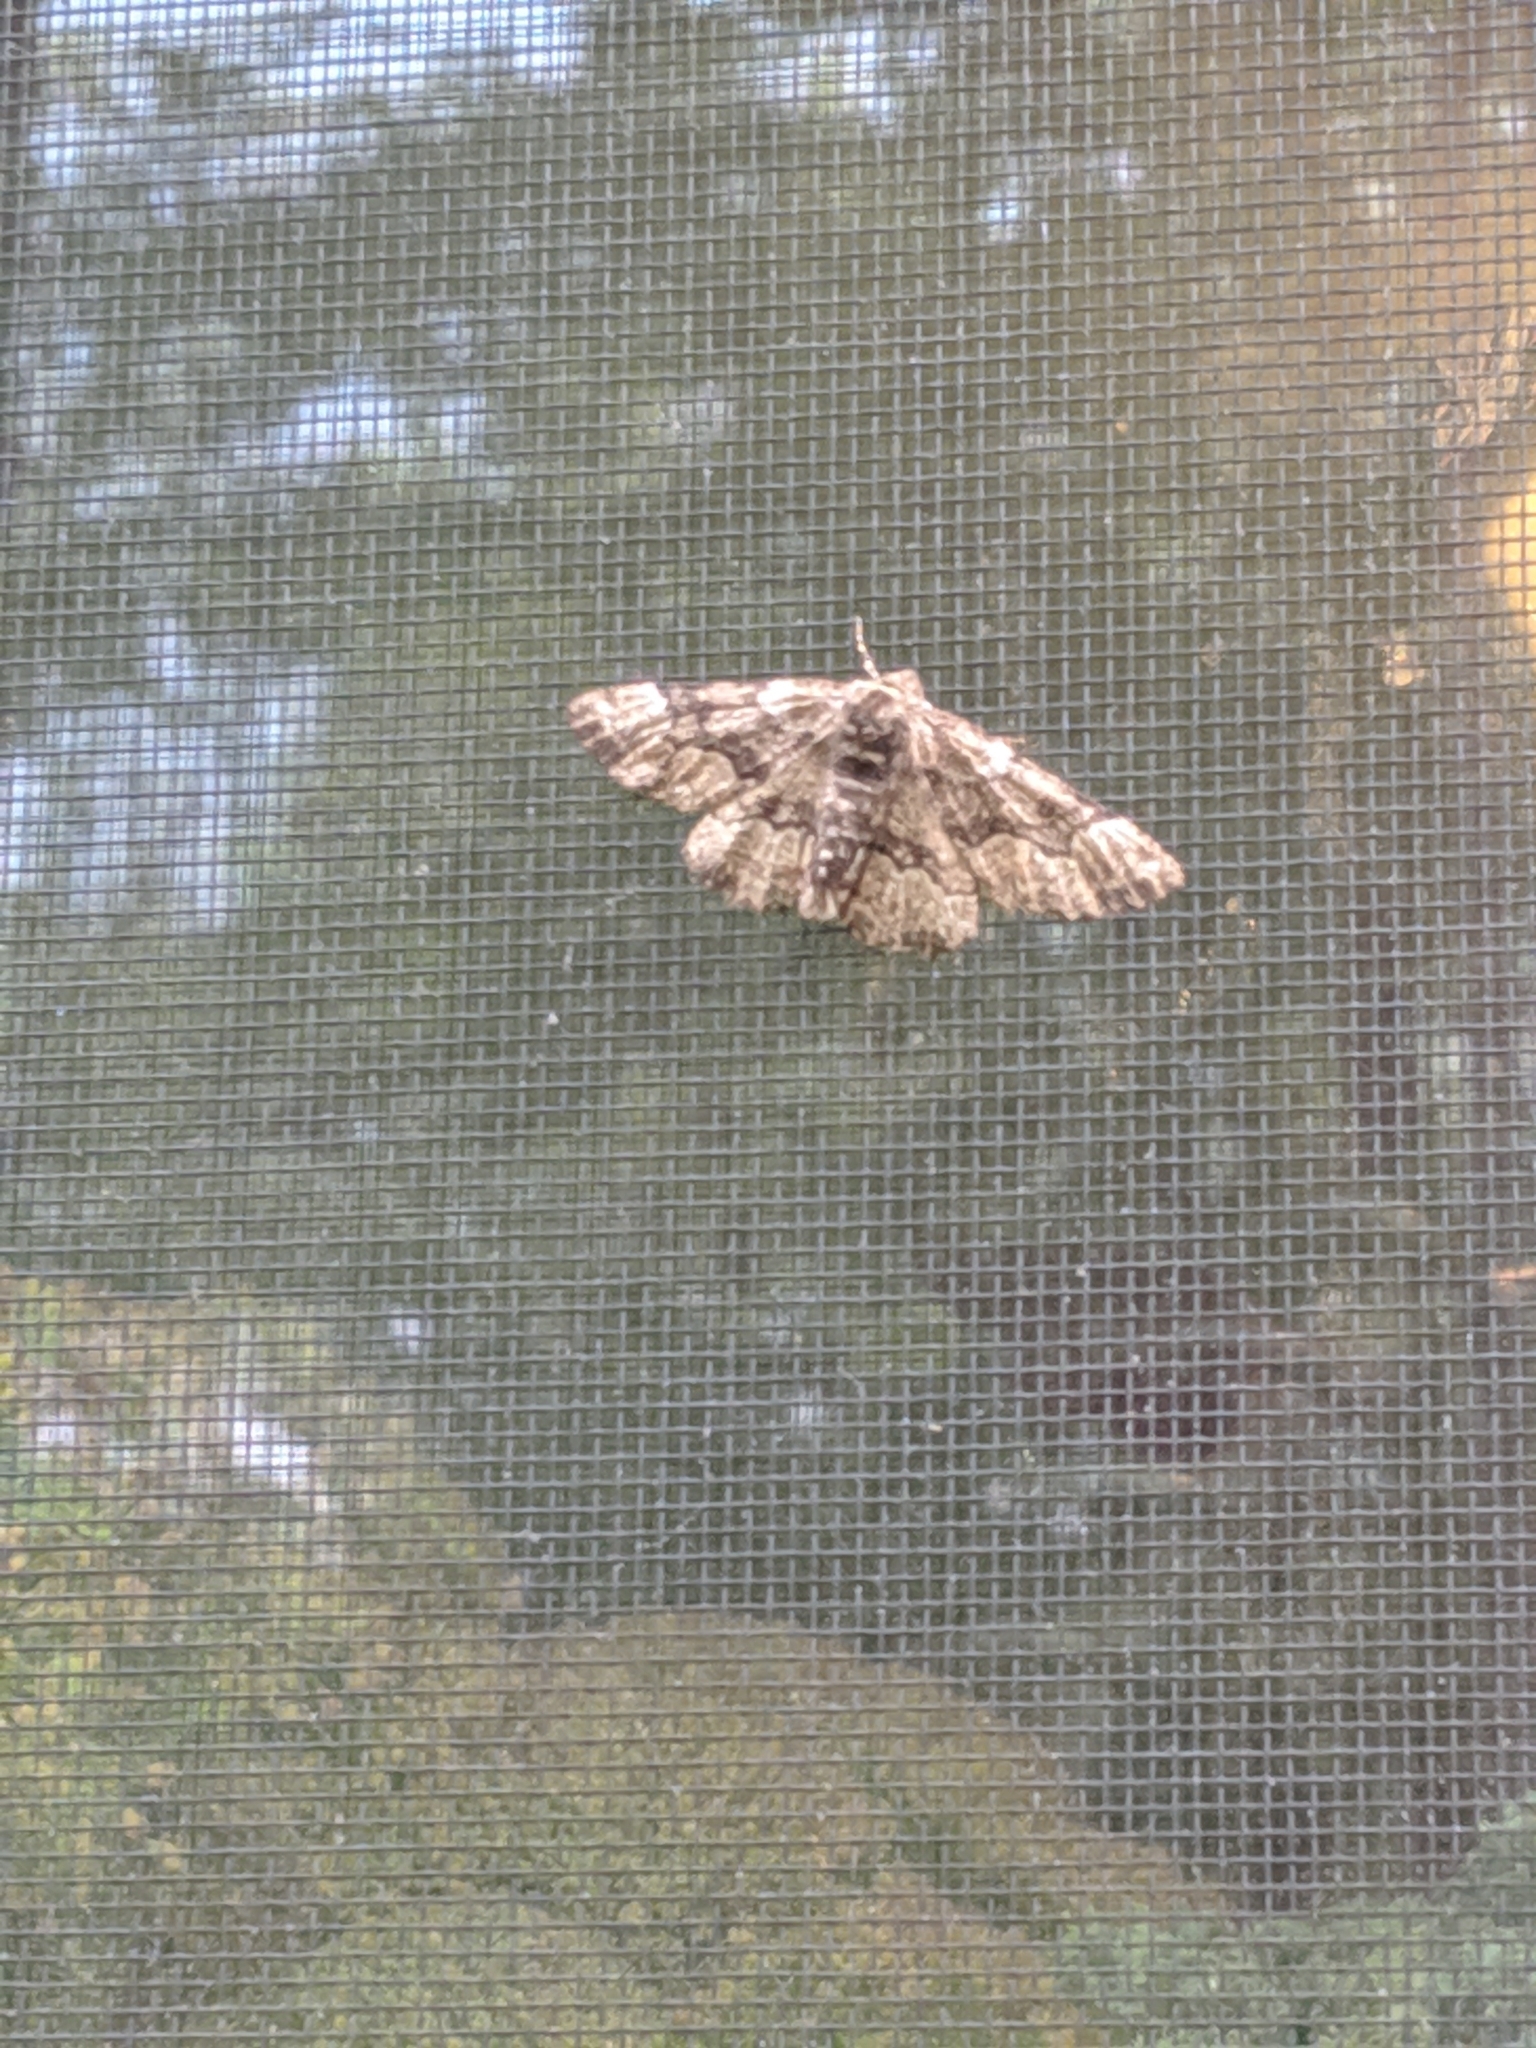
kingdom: Animalia
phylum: Arthropoda
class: Insecta
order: Lepidoptera
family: Geometridae
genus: Phaeoura
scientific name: Phaeoura quernaria
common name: Oak beauty
